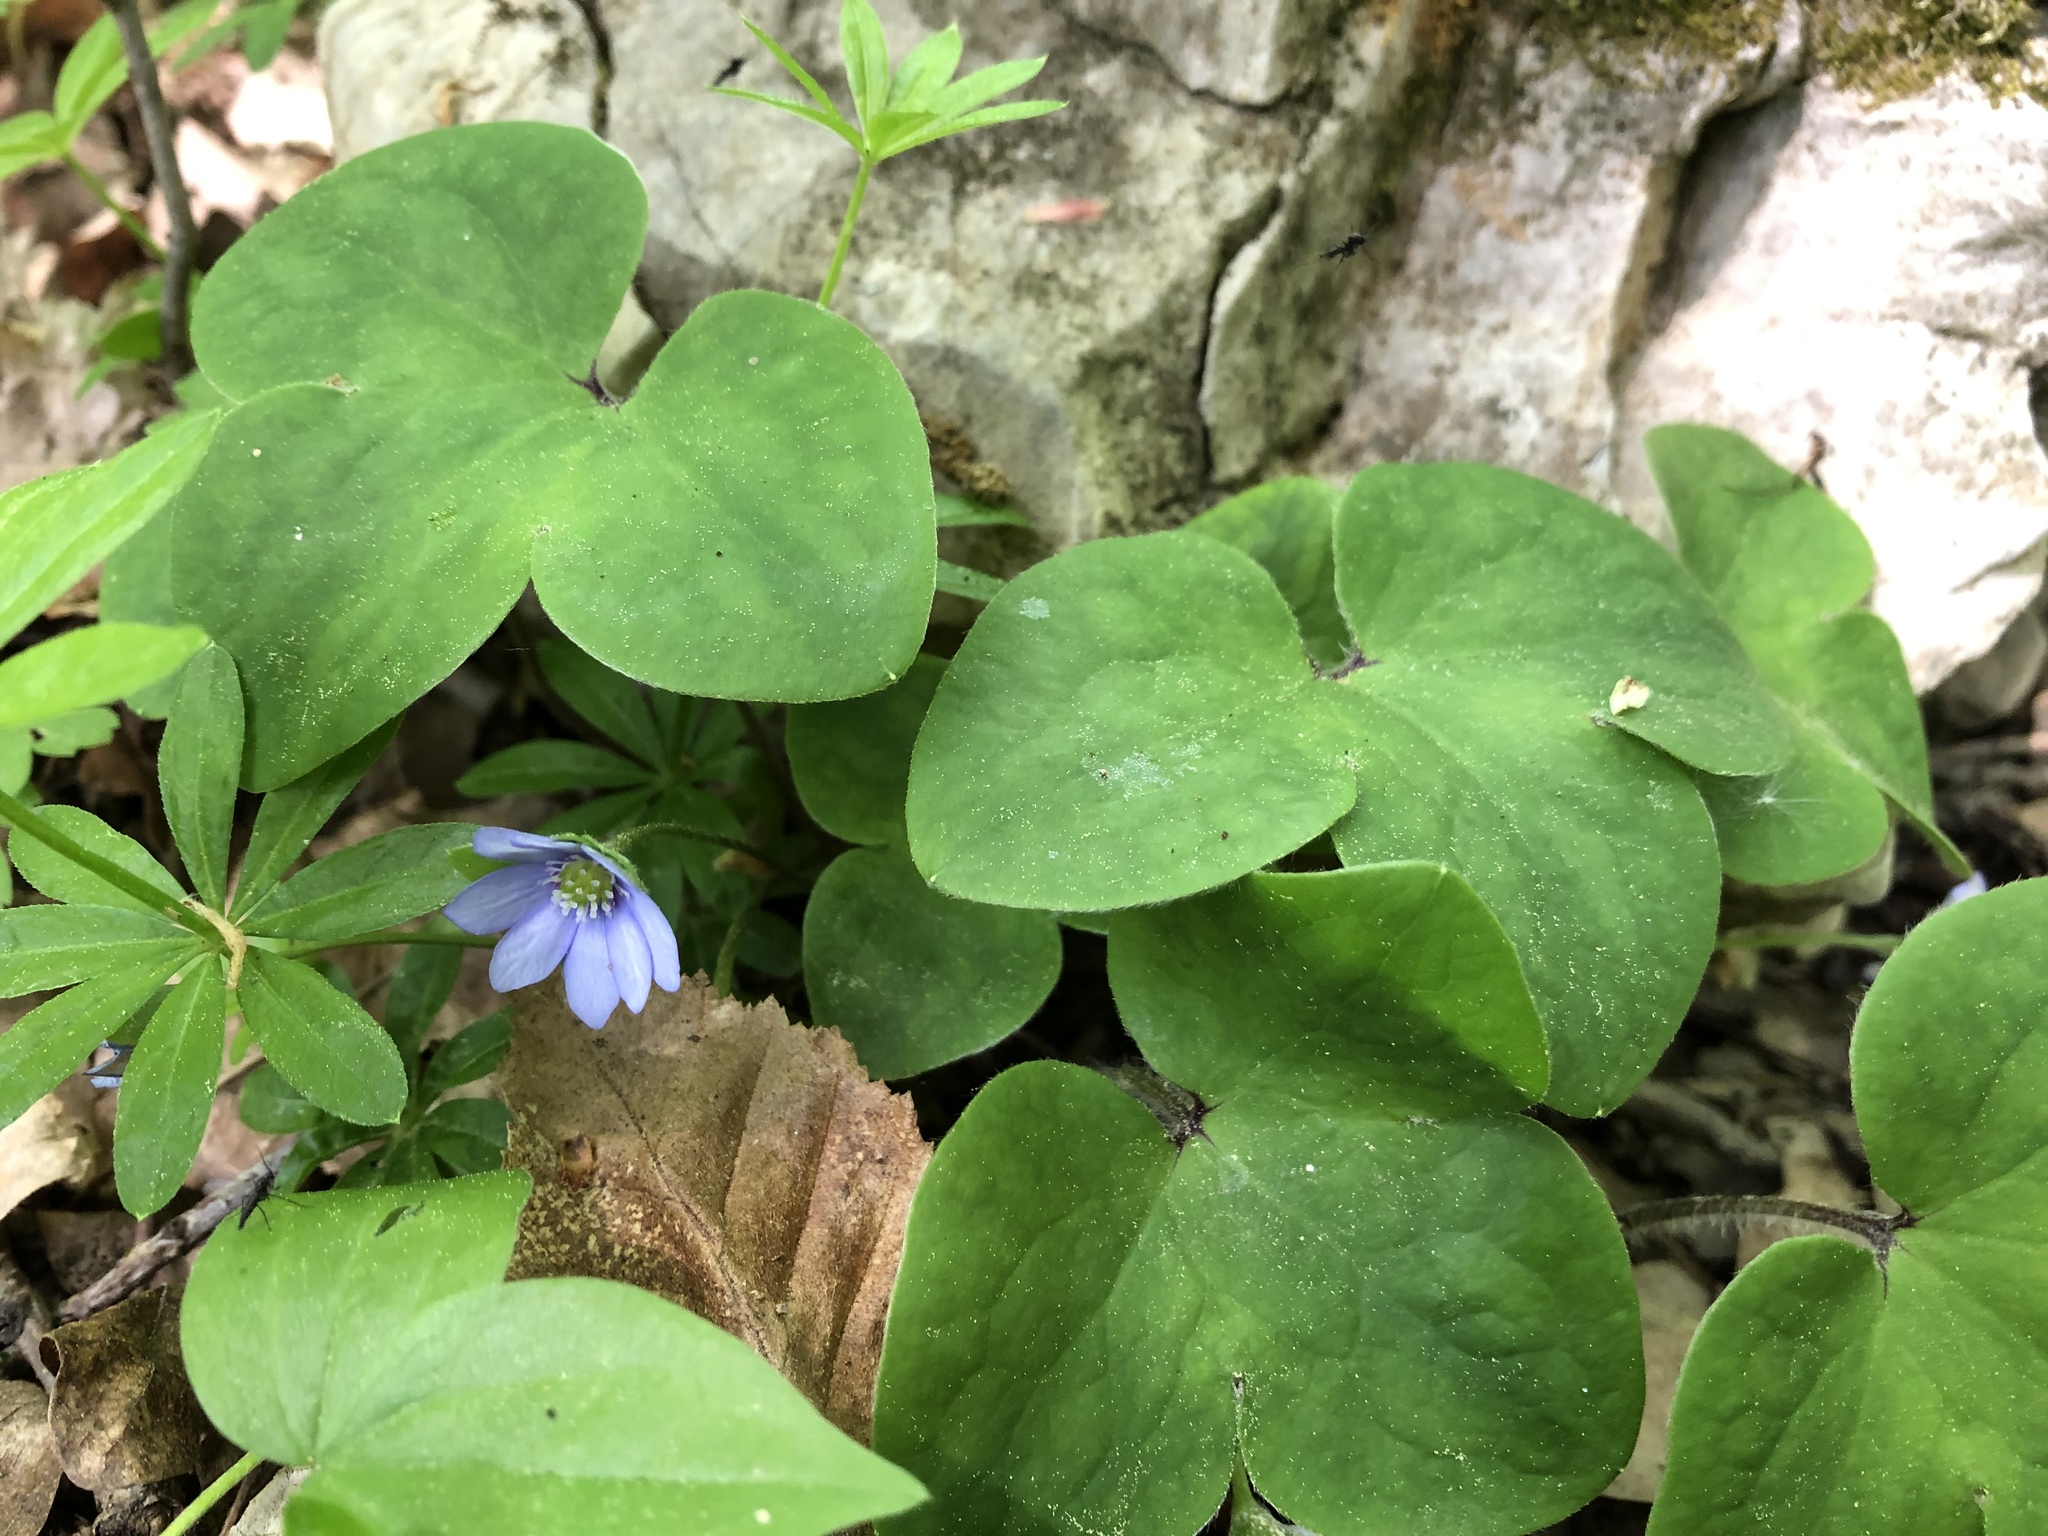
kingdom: Plantae
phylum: Tracheophyta
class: Magnoliopsida
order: Ranunculales
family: Ranunculaceae
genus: Hepatica
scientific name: Hepatica nobilis
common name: Liverleaf
